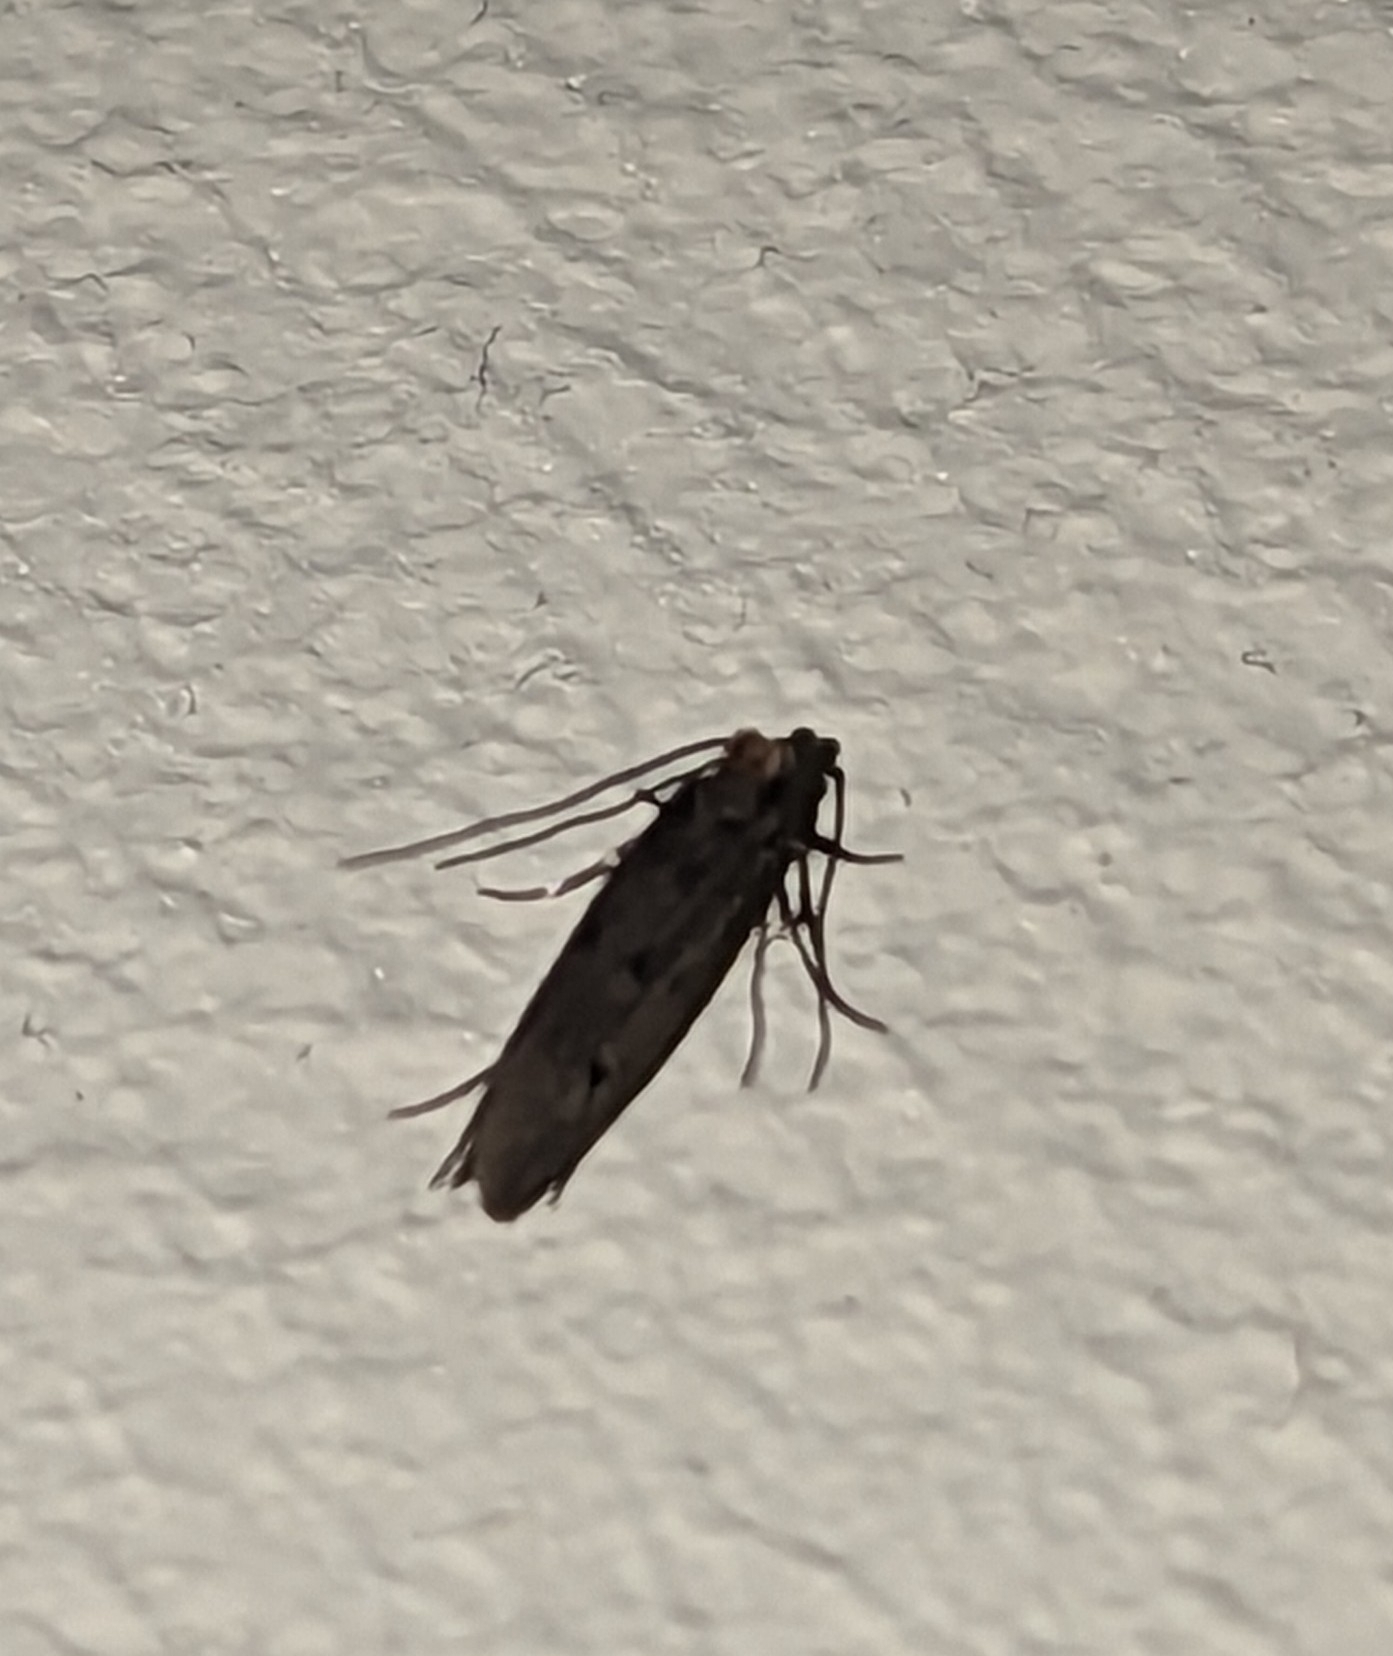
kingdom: Animalia
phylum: Arthropoda
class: Insecta
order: Lepidoptera
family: Tineidae
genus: Tinea
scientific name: Tinea pellionella
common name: Case-making clothes moth
